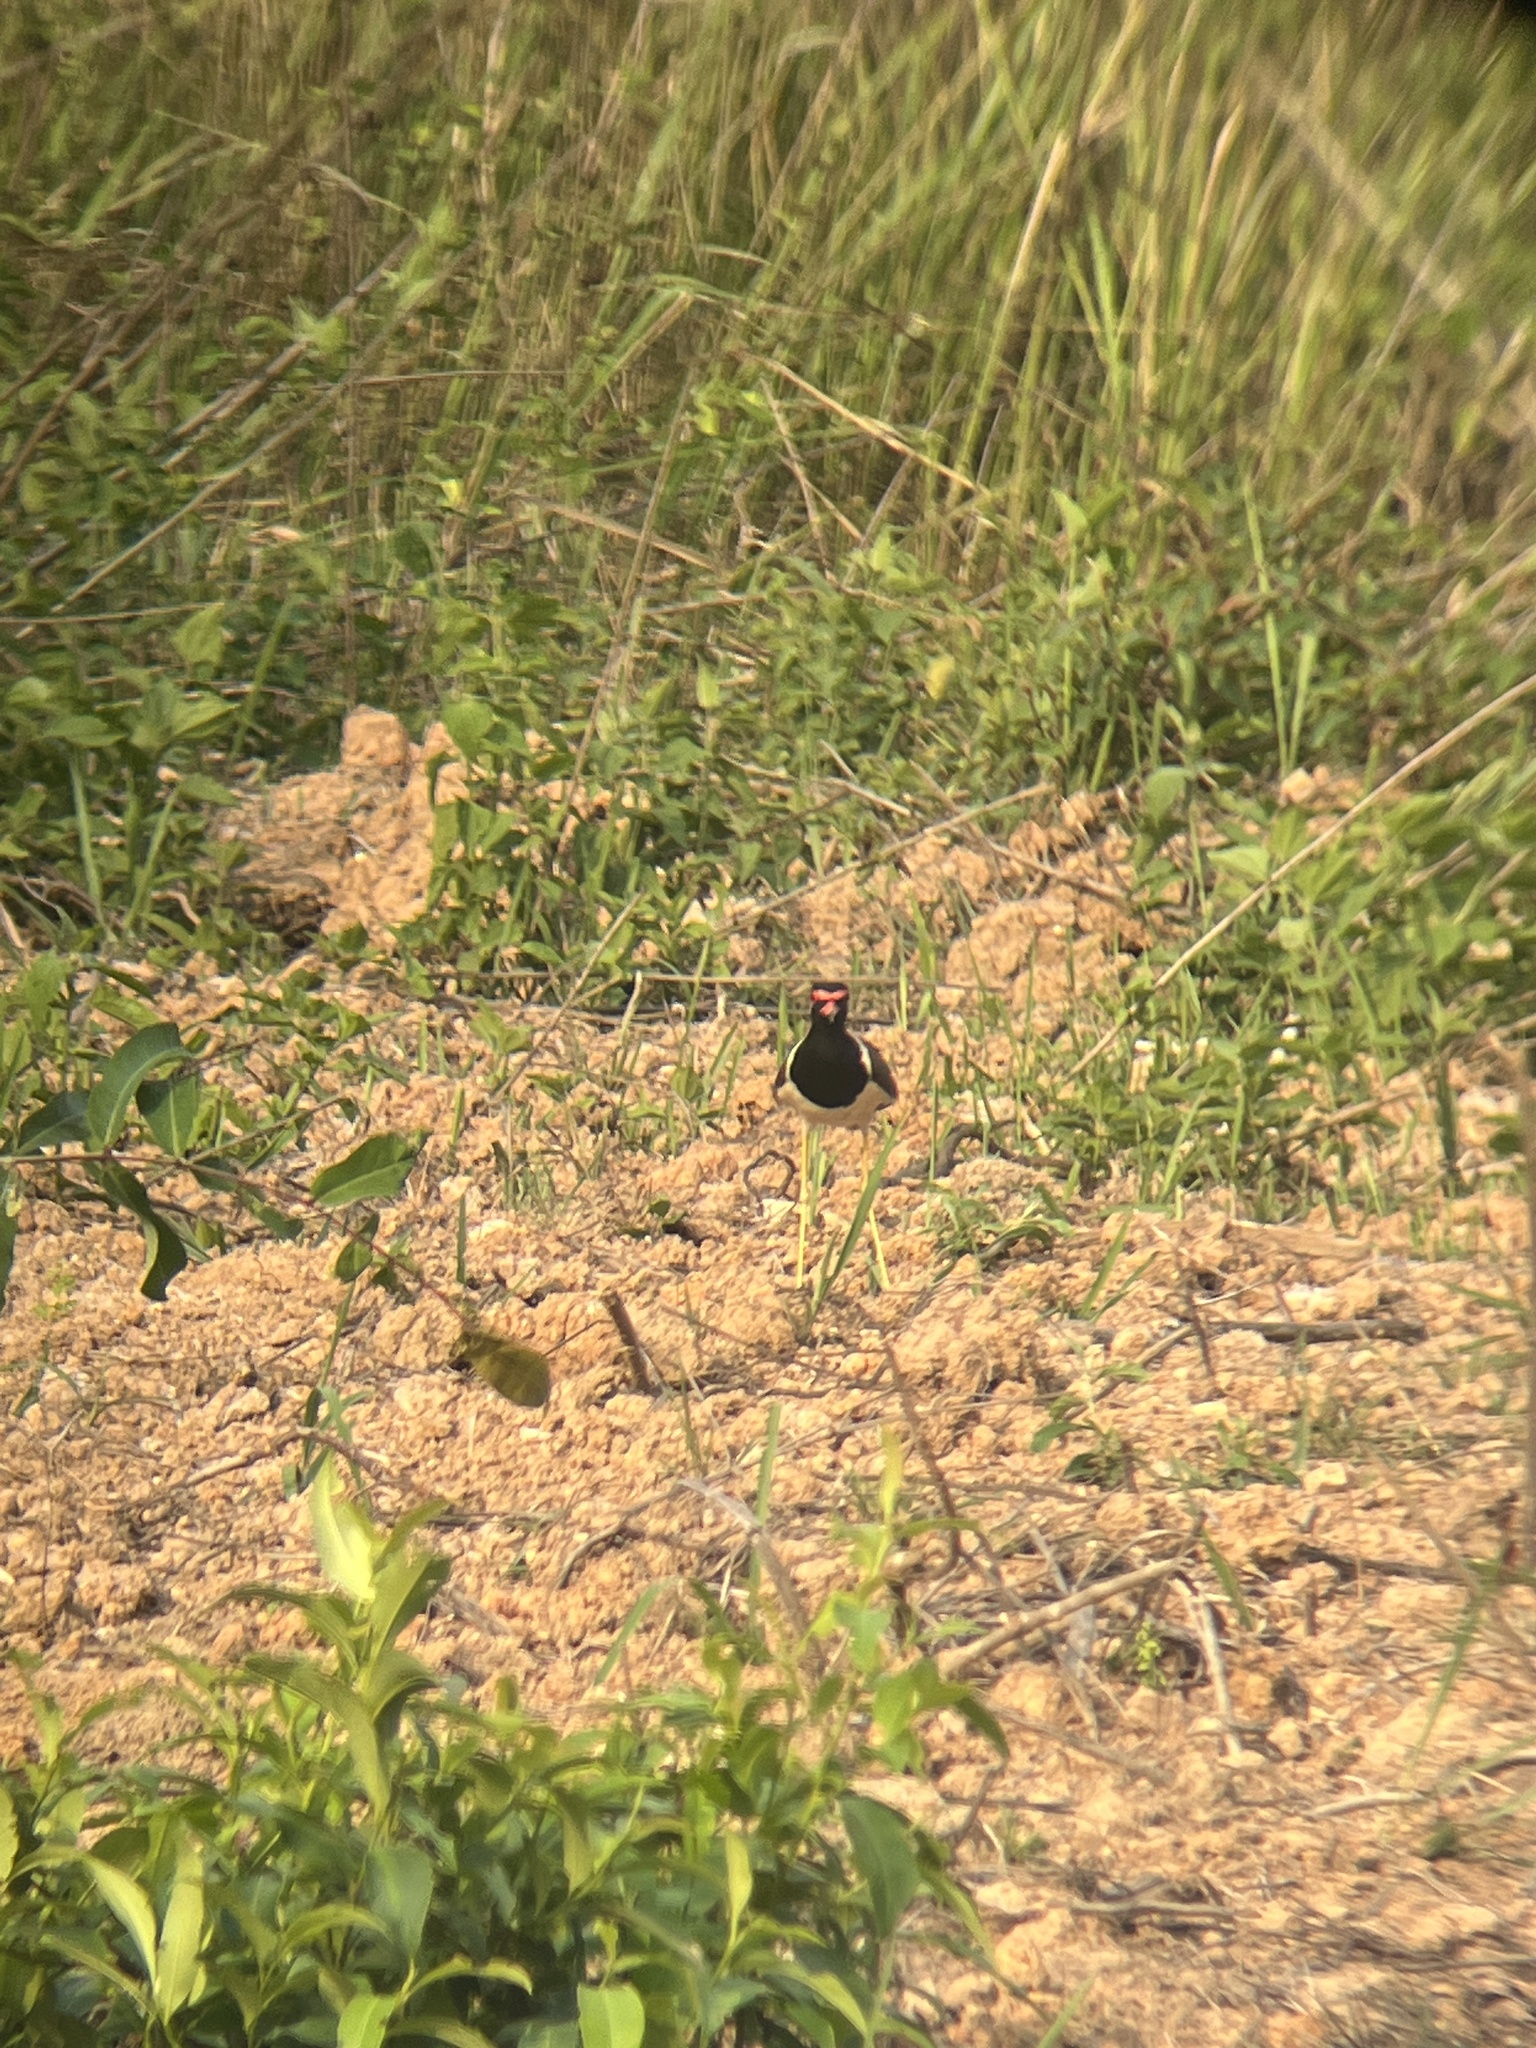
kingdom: Animalia
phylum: Chordata
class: Aves
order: Charadriiformes
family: Charadriidae
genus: Vanellus
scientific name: Vanellus indicus
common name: Red-wattled lapwing
